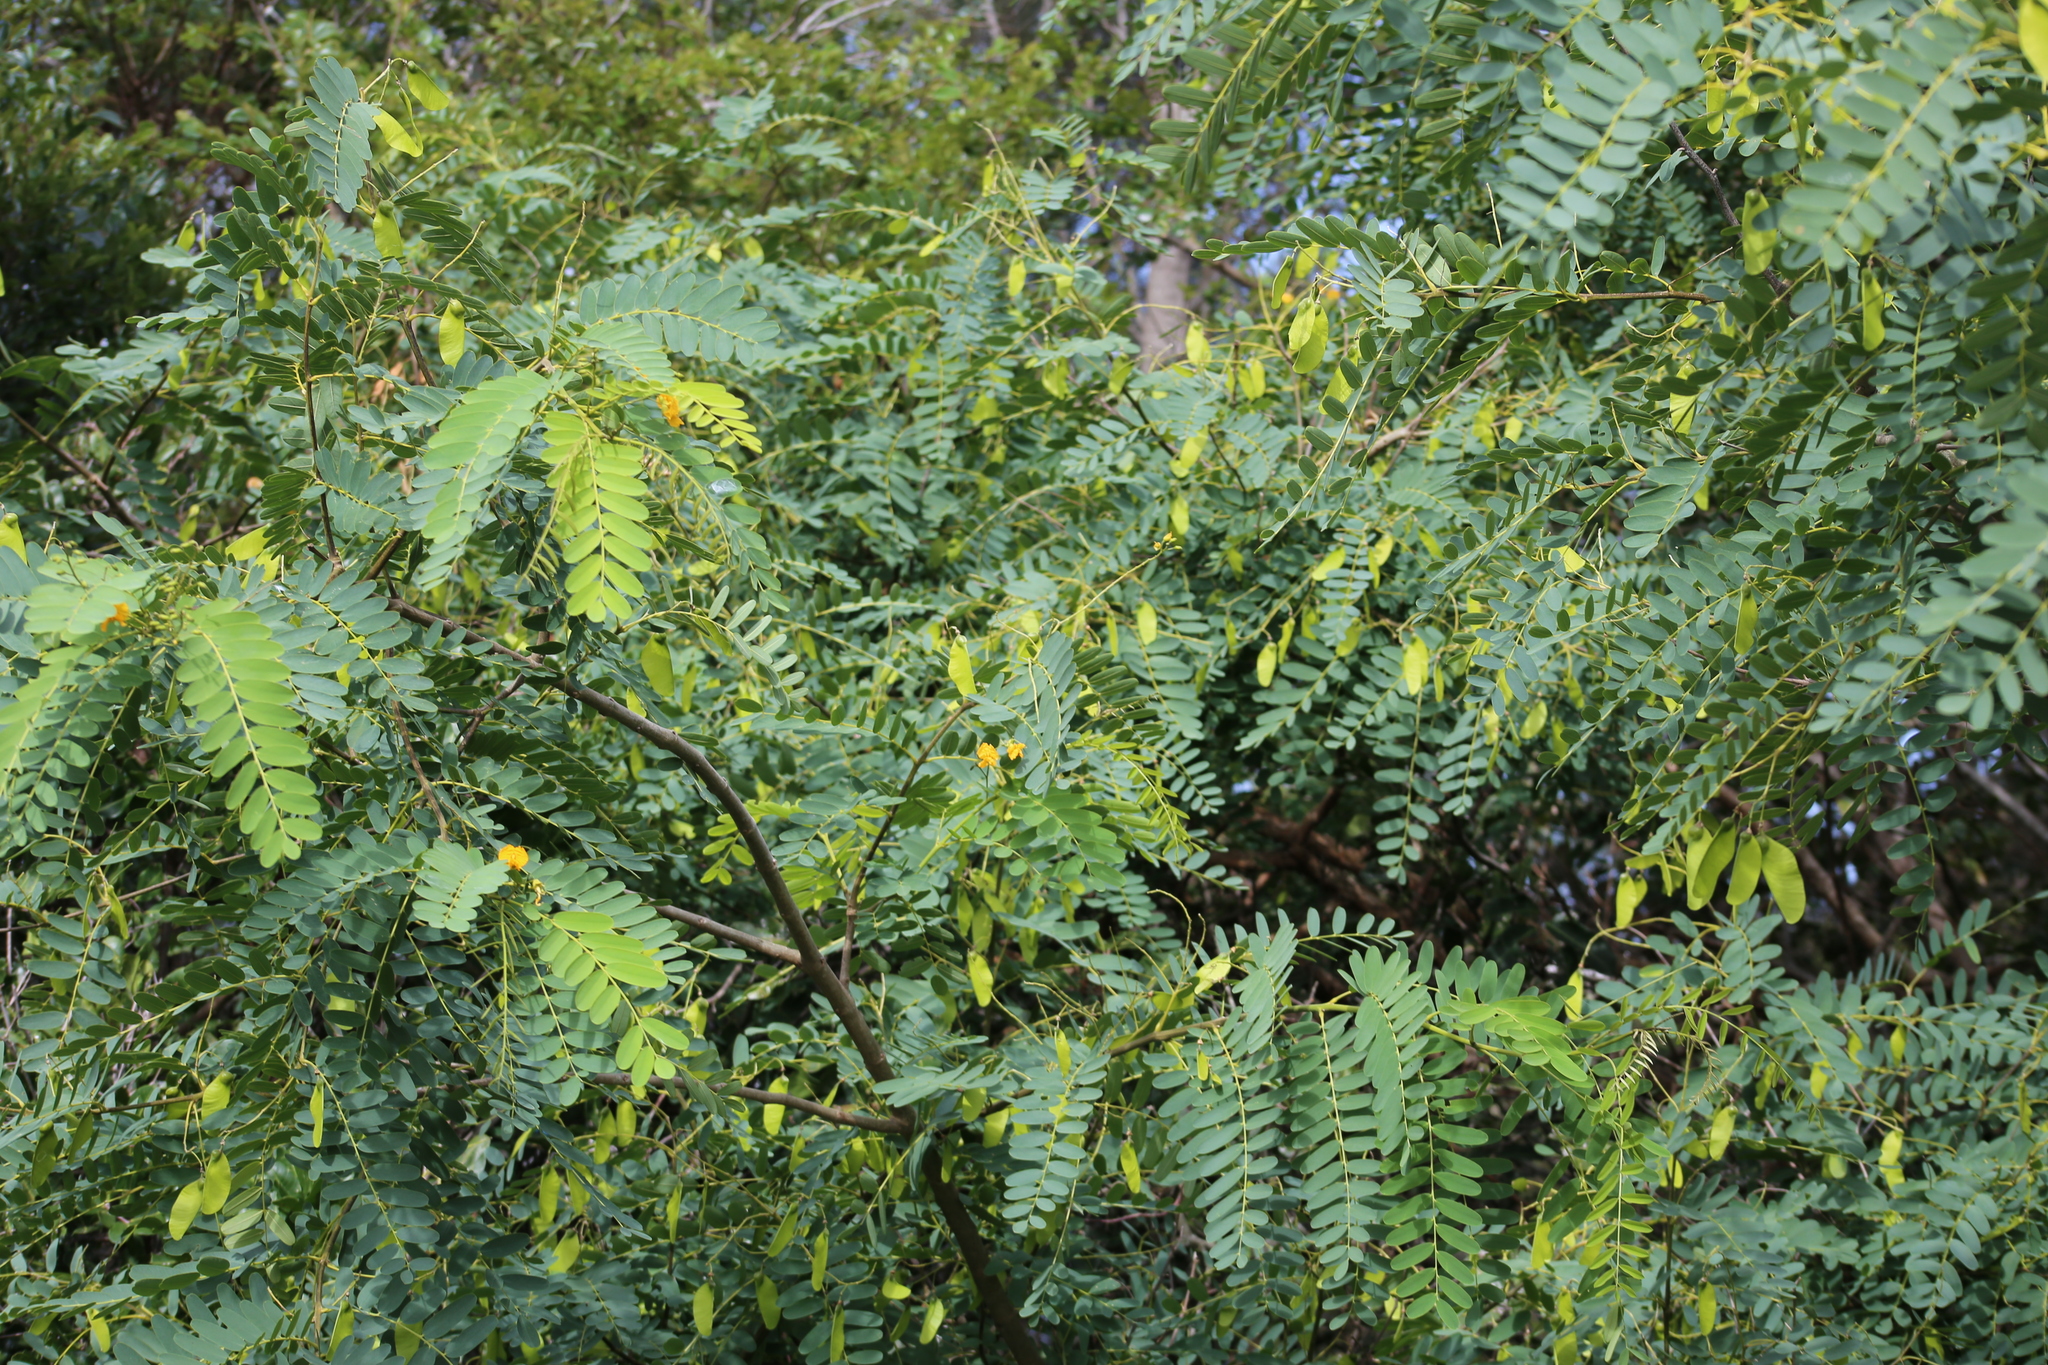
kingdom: Plantae
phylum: Tracheophyta
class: Magnoliopsida
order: Fabales
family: Fabaceae
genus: Tipuana
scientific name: Tipuana tipu
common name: Tiputree
